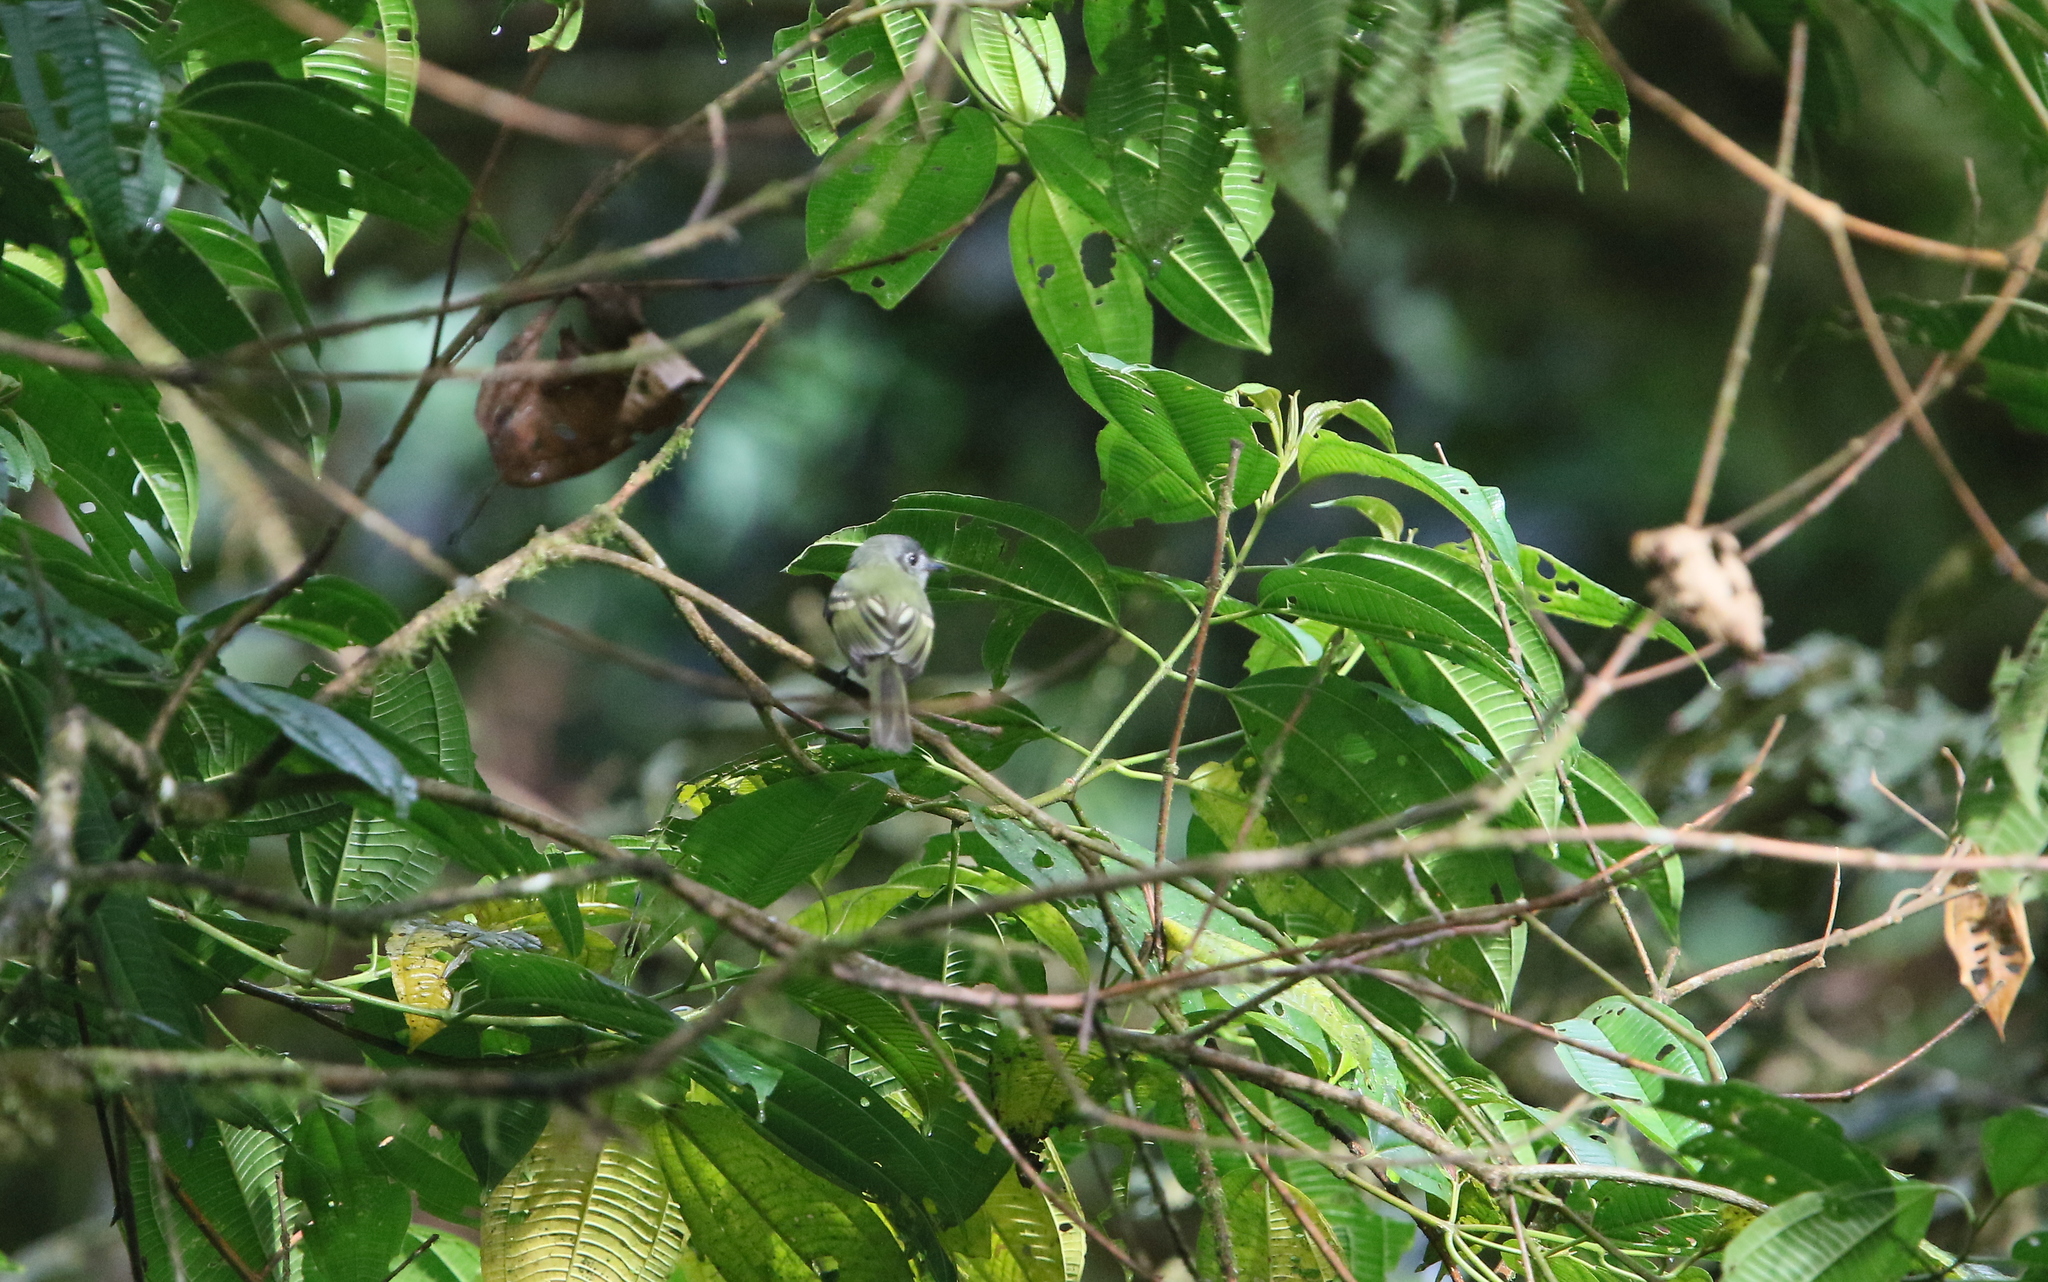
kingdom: Animalia
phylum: Chordata
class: Aves
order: Passeriformes
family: Tyrannidae
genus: Leptopogon
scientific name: Leptopogon superciliaris
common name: Slaty-capped flycatcher
